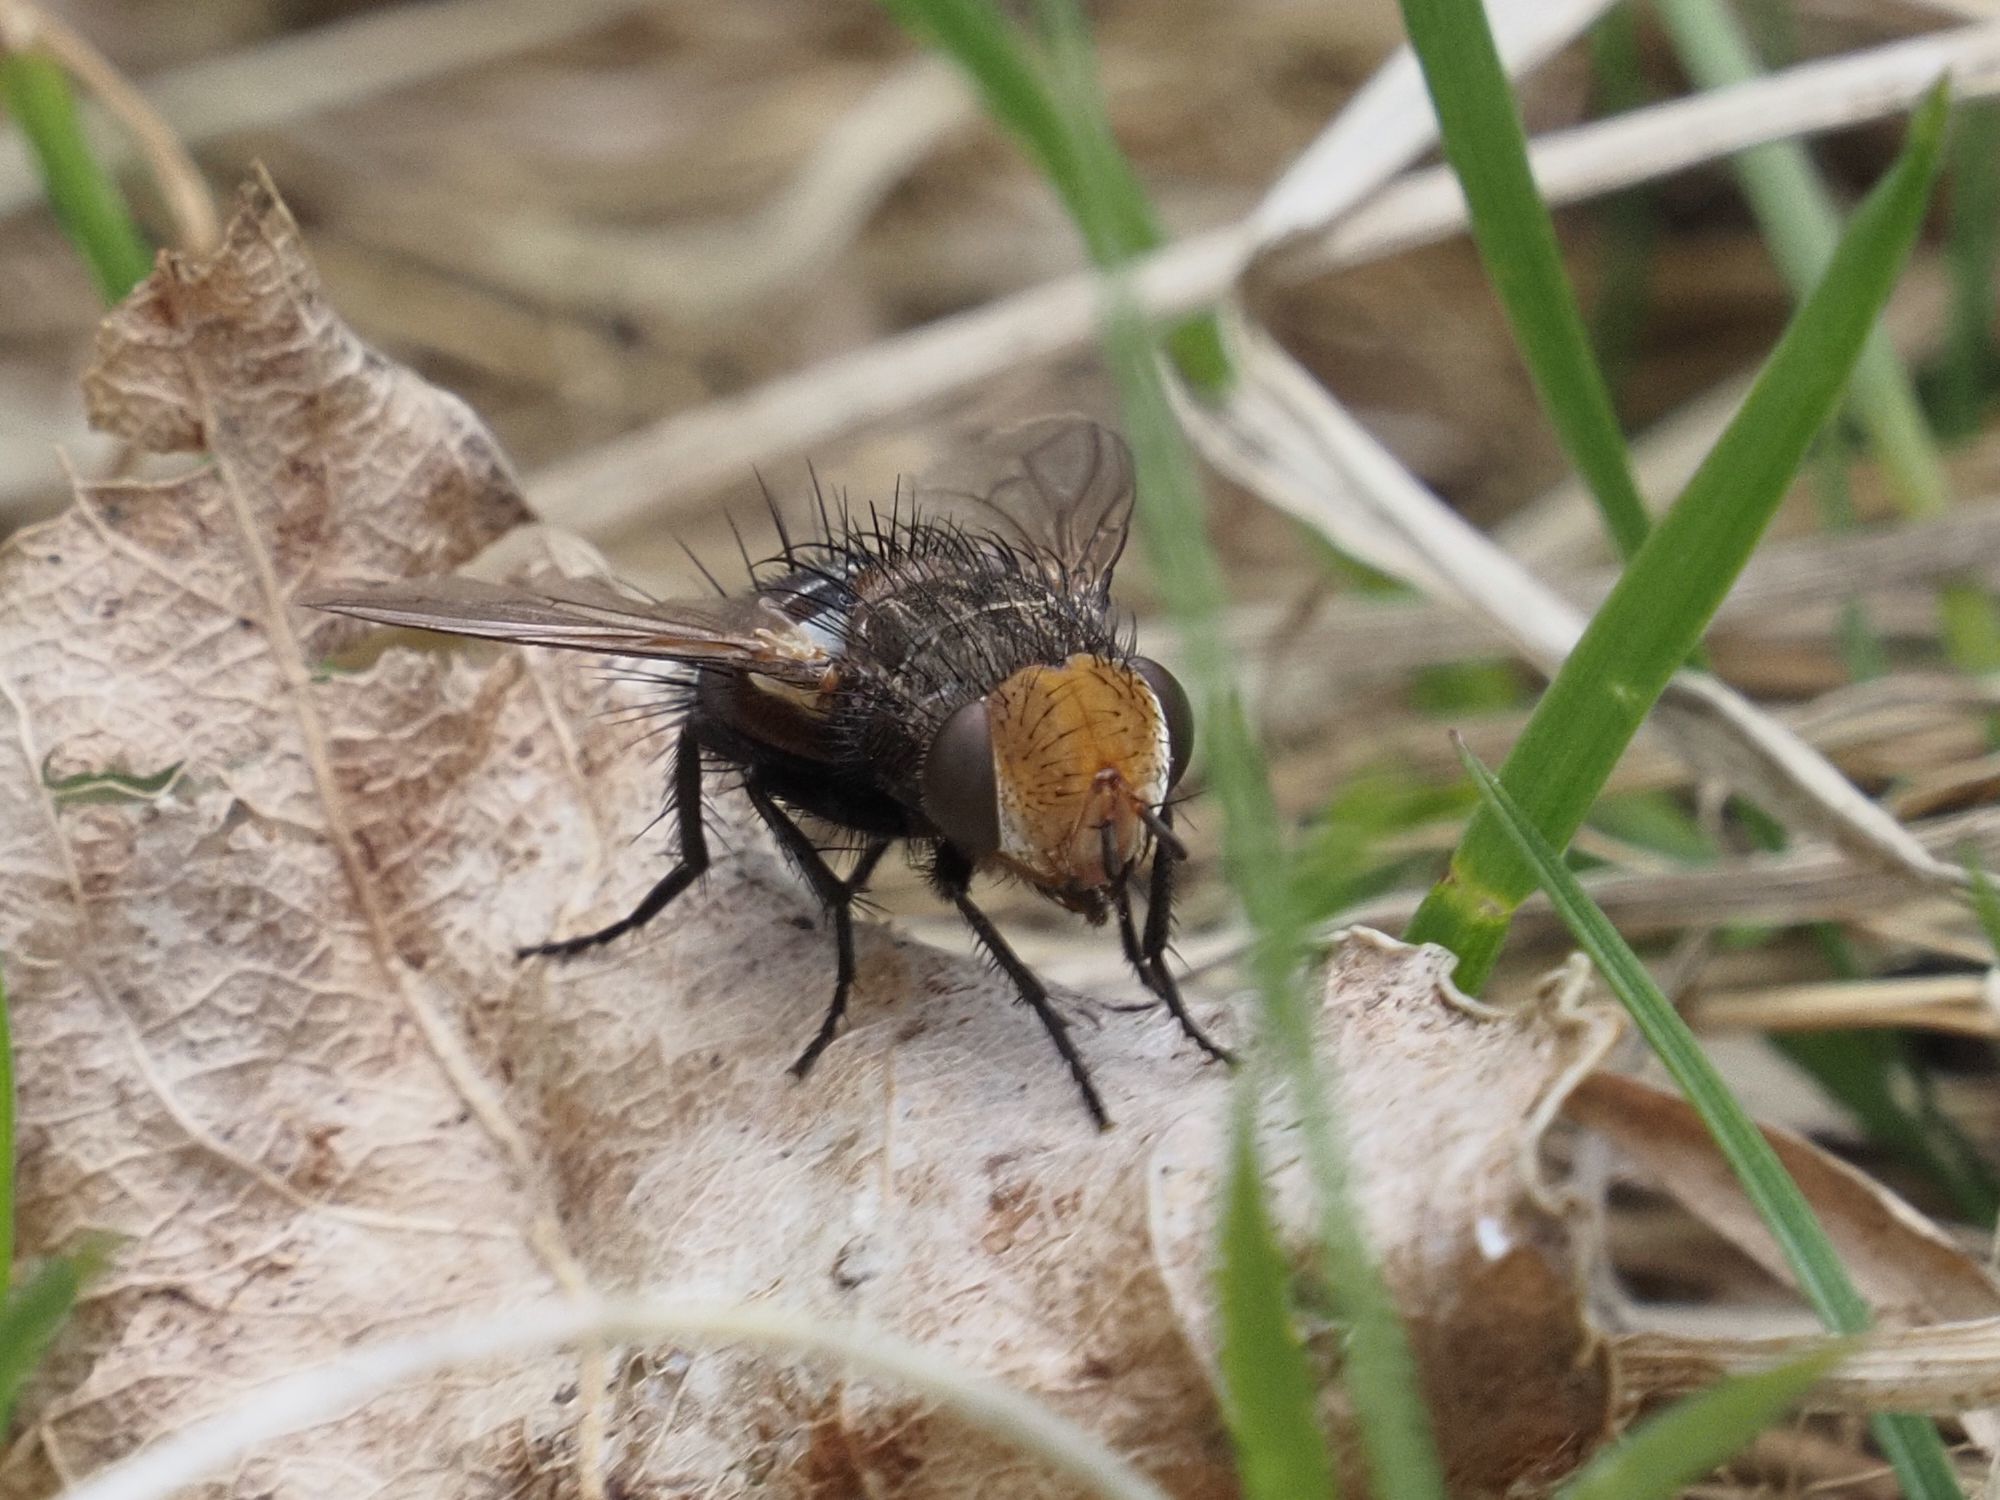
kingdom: Animalia
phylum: Arthropoda
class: Insecta
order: Diptera
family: Tachinidae
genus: Gonia
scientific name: Gonia picea
